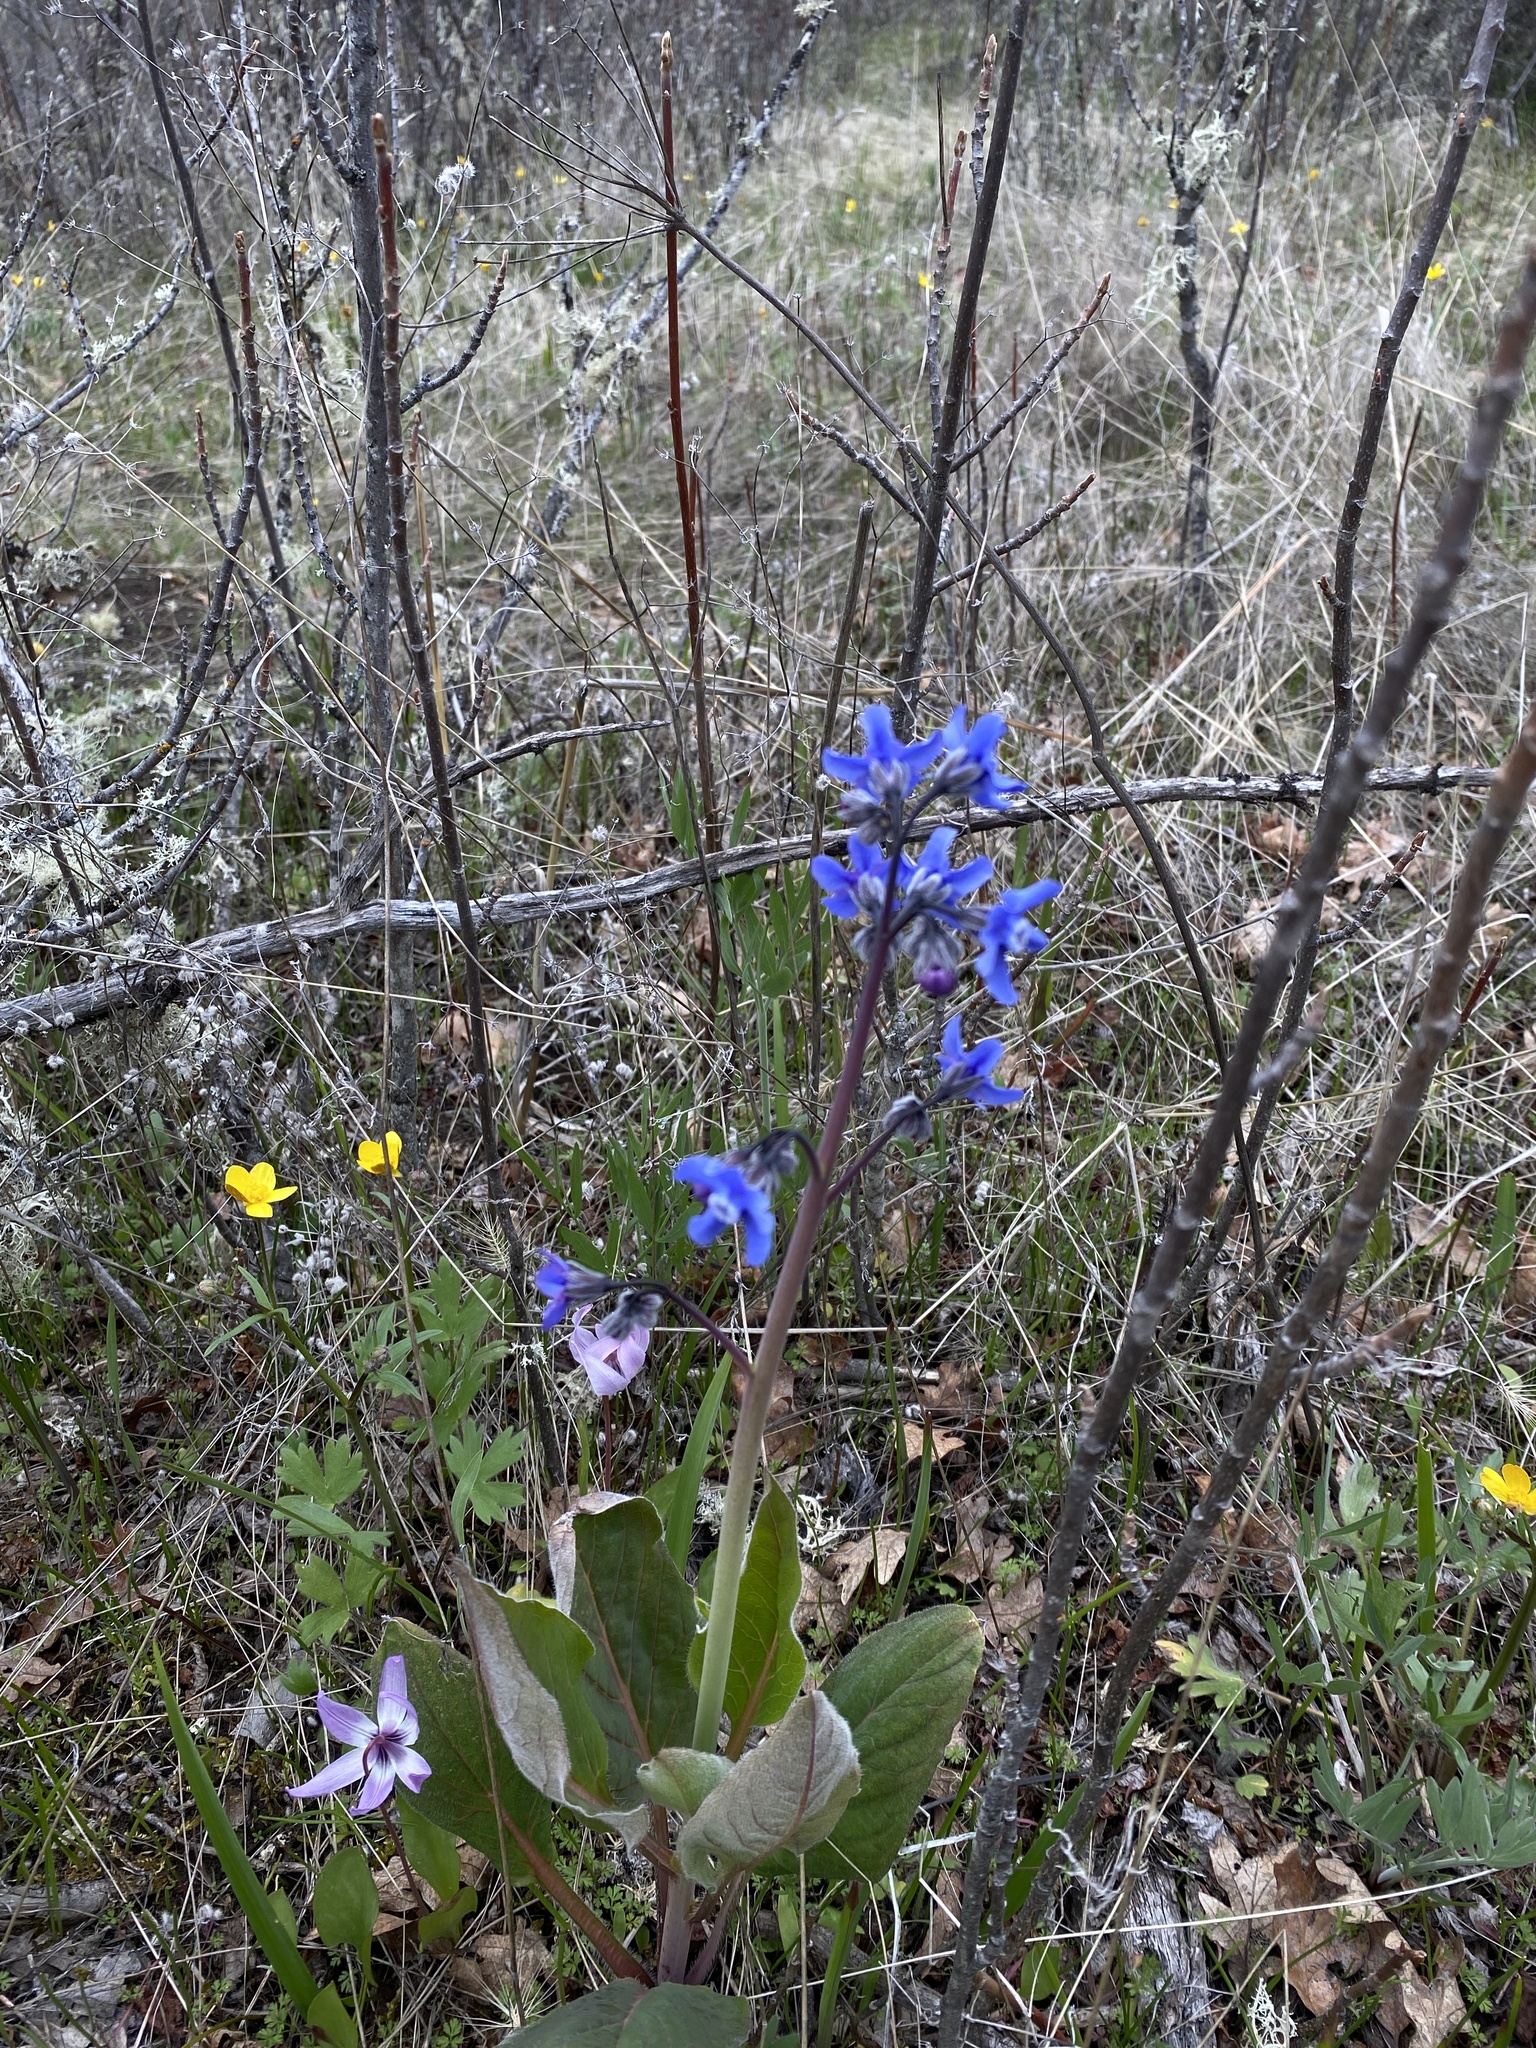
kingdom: Plantae
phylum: Tracheophyta
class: Magnoliopsida
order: Boraginales
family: Boraginaceae
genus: Adelinia
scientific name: Adelinia grande
